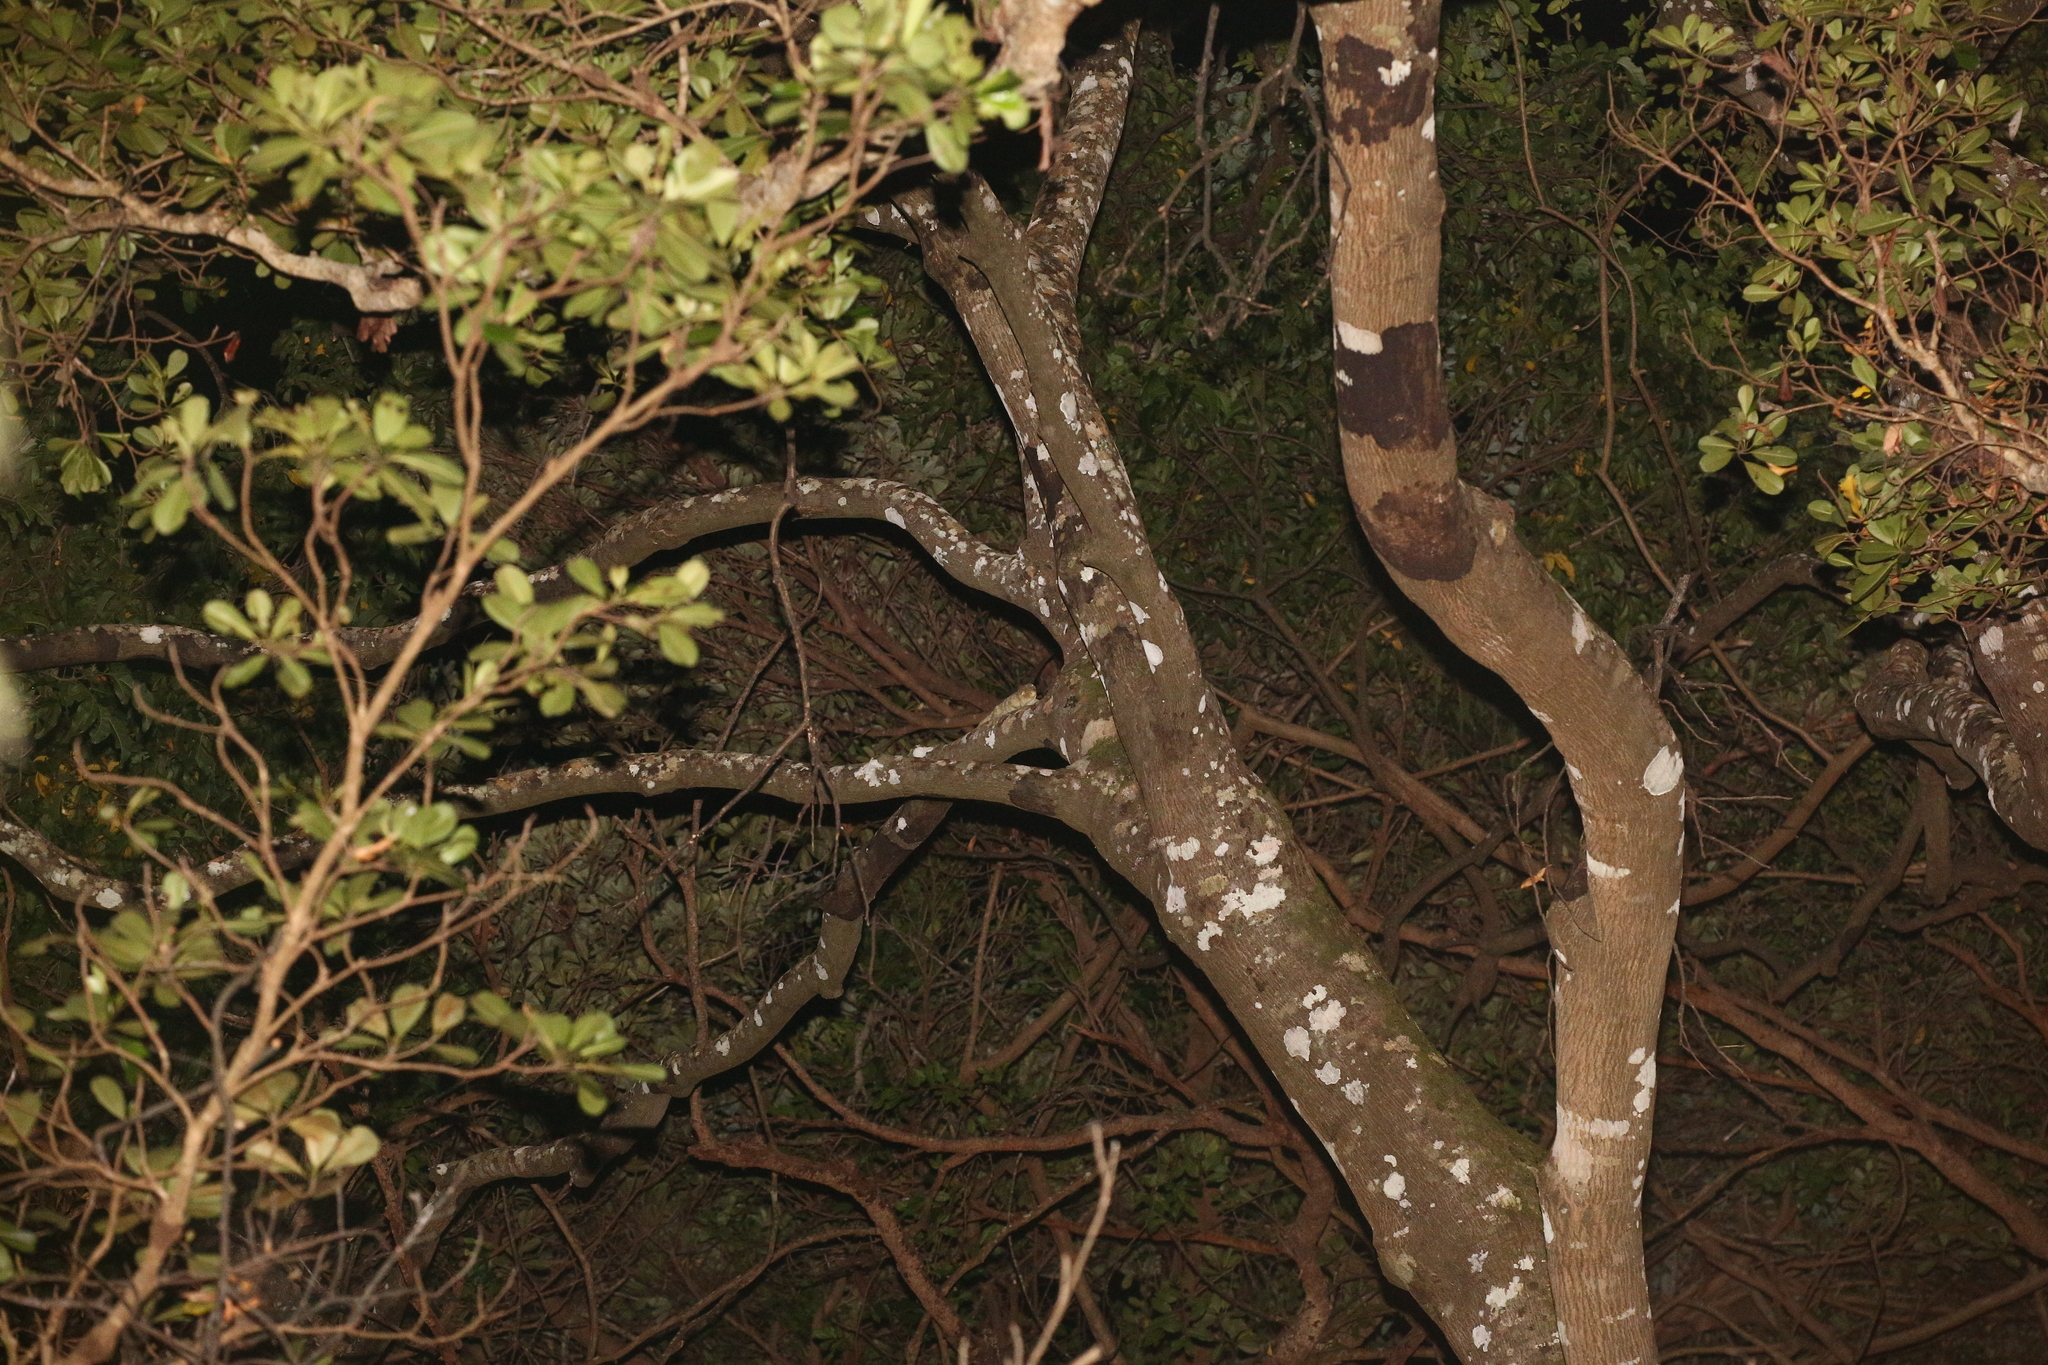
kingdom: Animalia
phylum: Chordata
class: Squamata
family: Diplodactylidae
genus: Rhacodactylus
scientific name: Rhacodactylus leachianus
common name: New caledonia giant gecko
